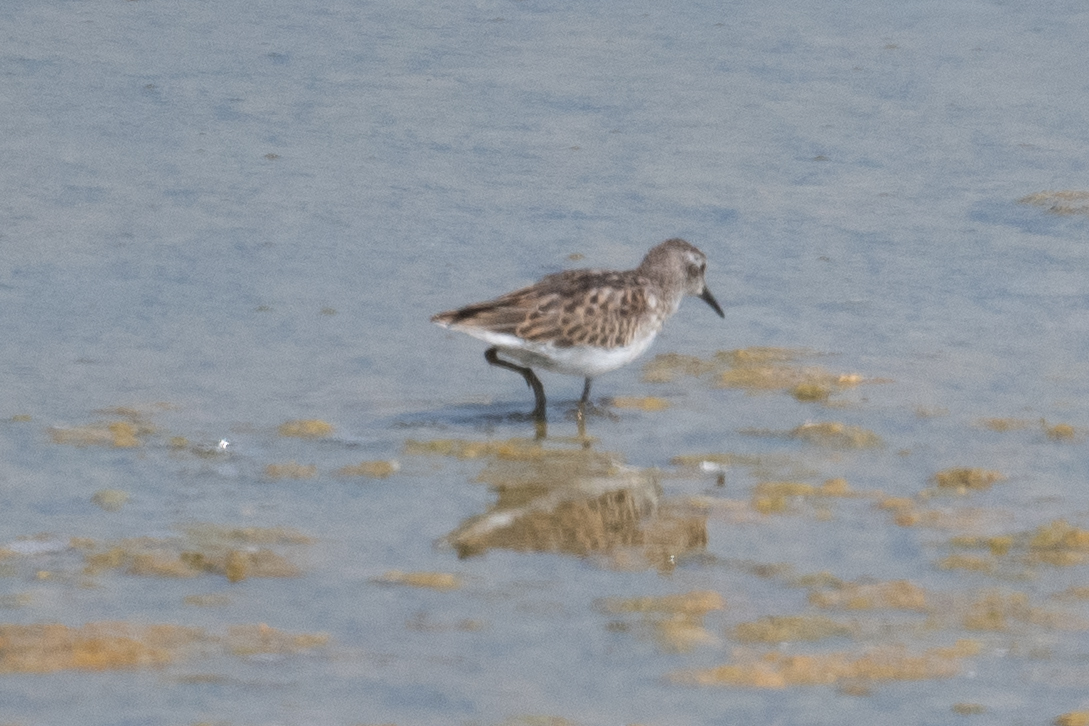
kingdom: Animalia
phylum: Chordata
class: Aves
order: Charadriiformes
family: Scolopacidae
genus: Calidris
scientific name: Calidris minutilla
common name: Least sandpiper
